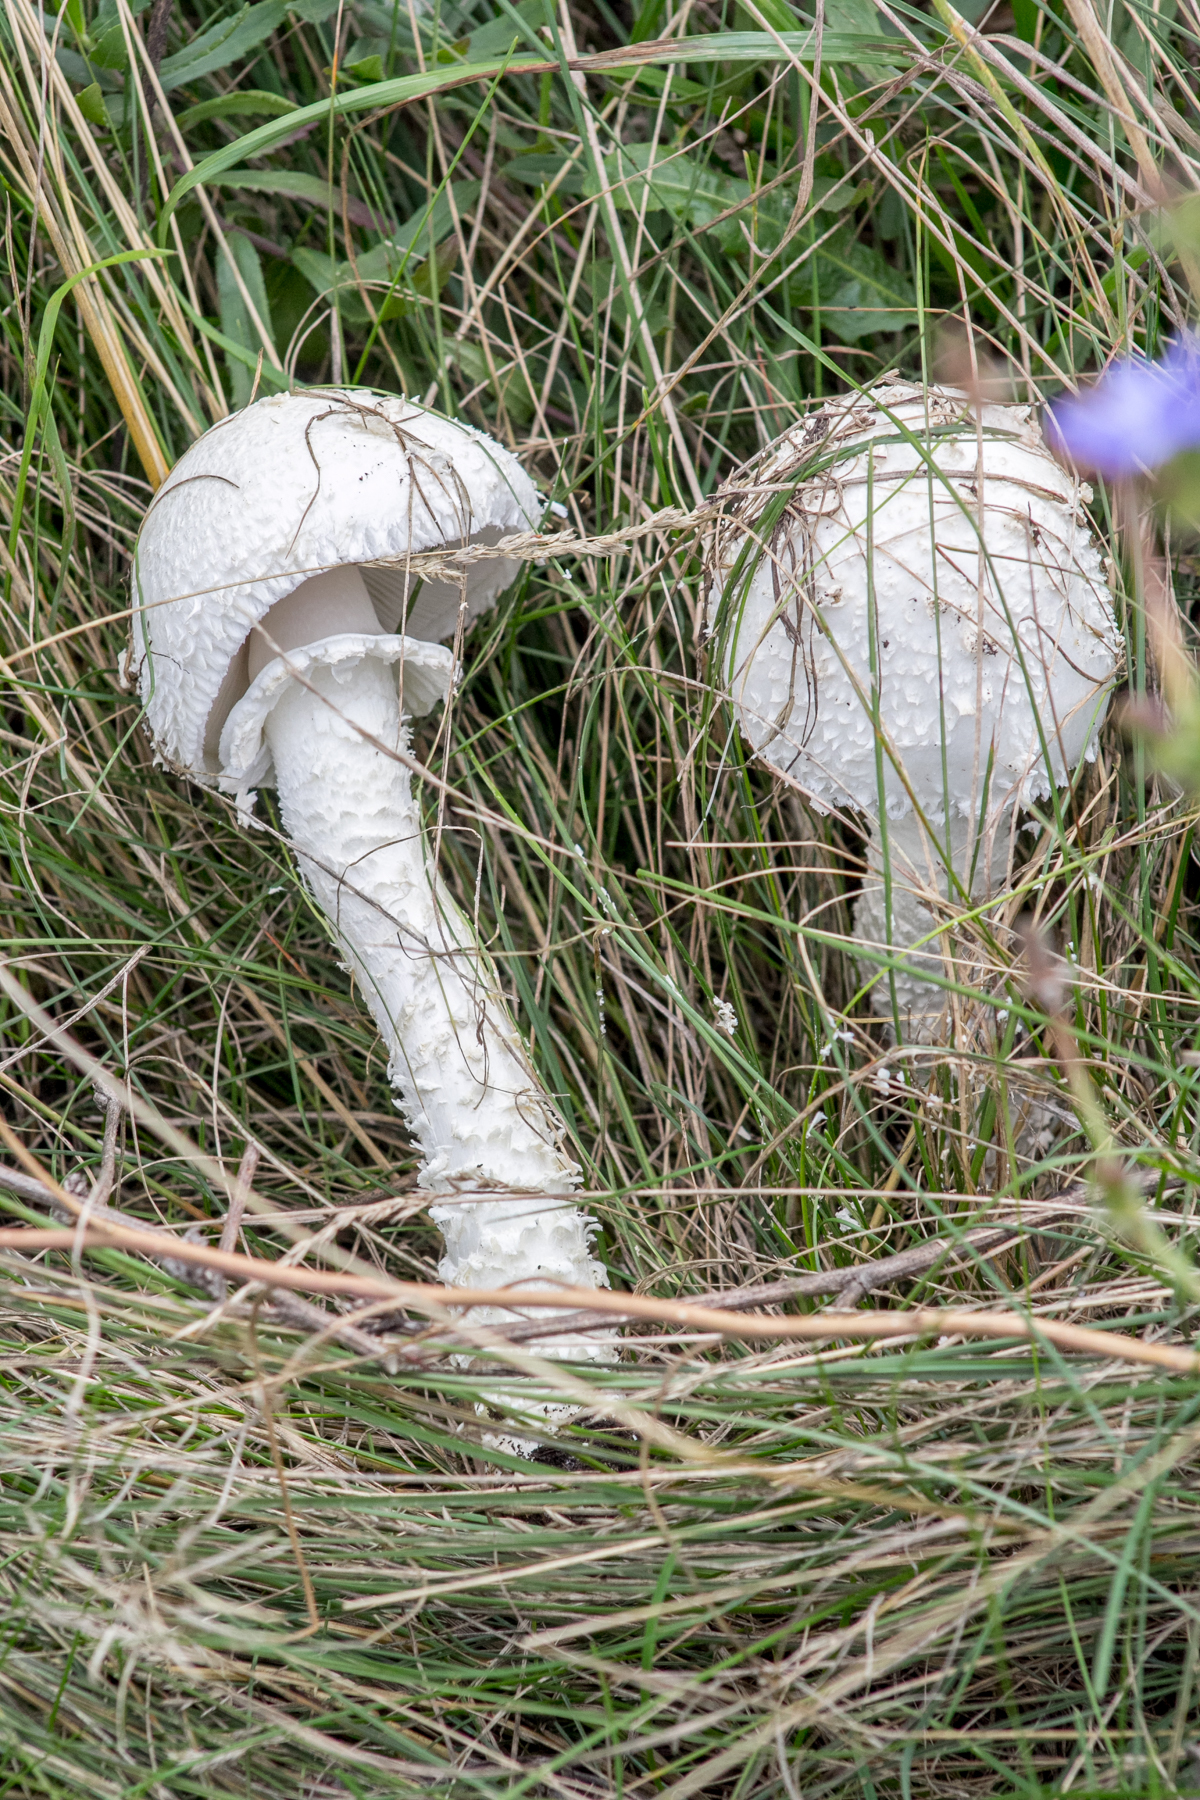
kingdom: Fungi
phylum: Basidiomycota
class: Agaricomycetes
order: Agaricales
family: Amanitaceae
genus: Amanita
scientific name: Amanita vittadinii
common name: Barefoot amanita
